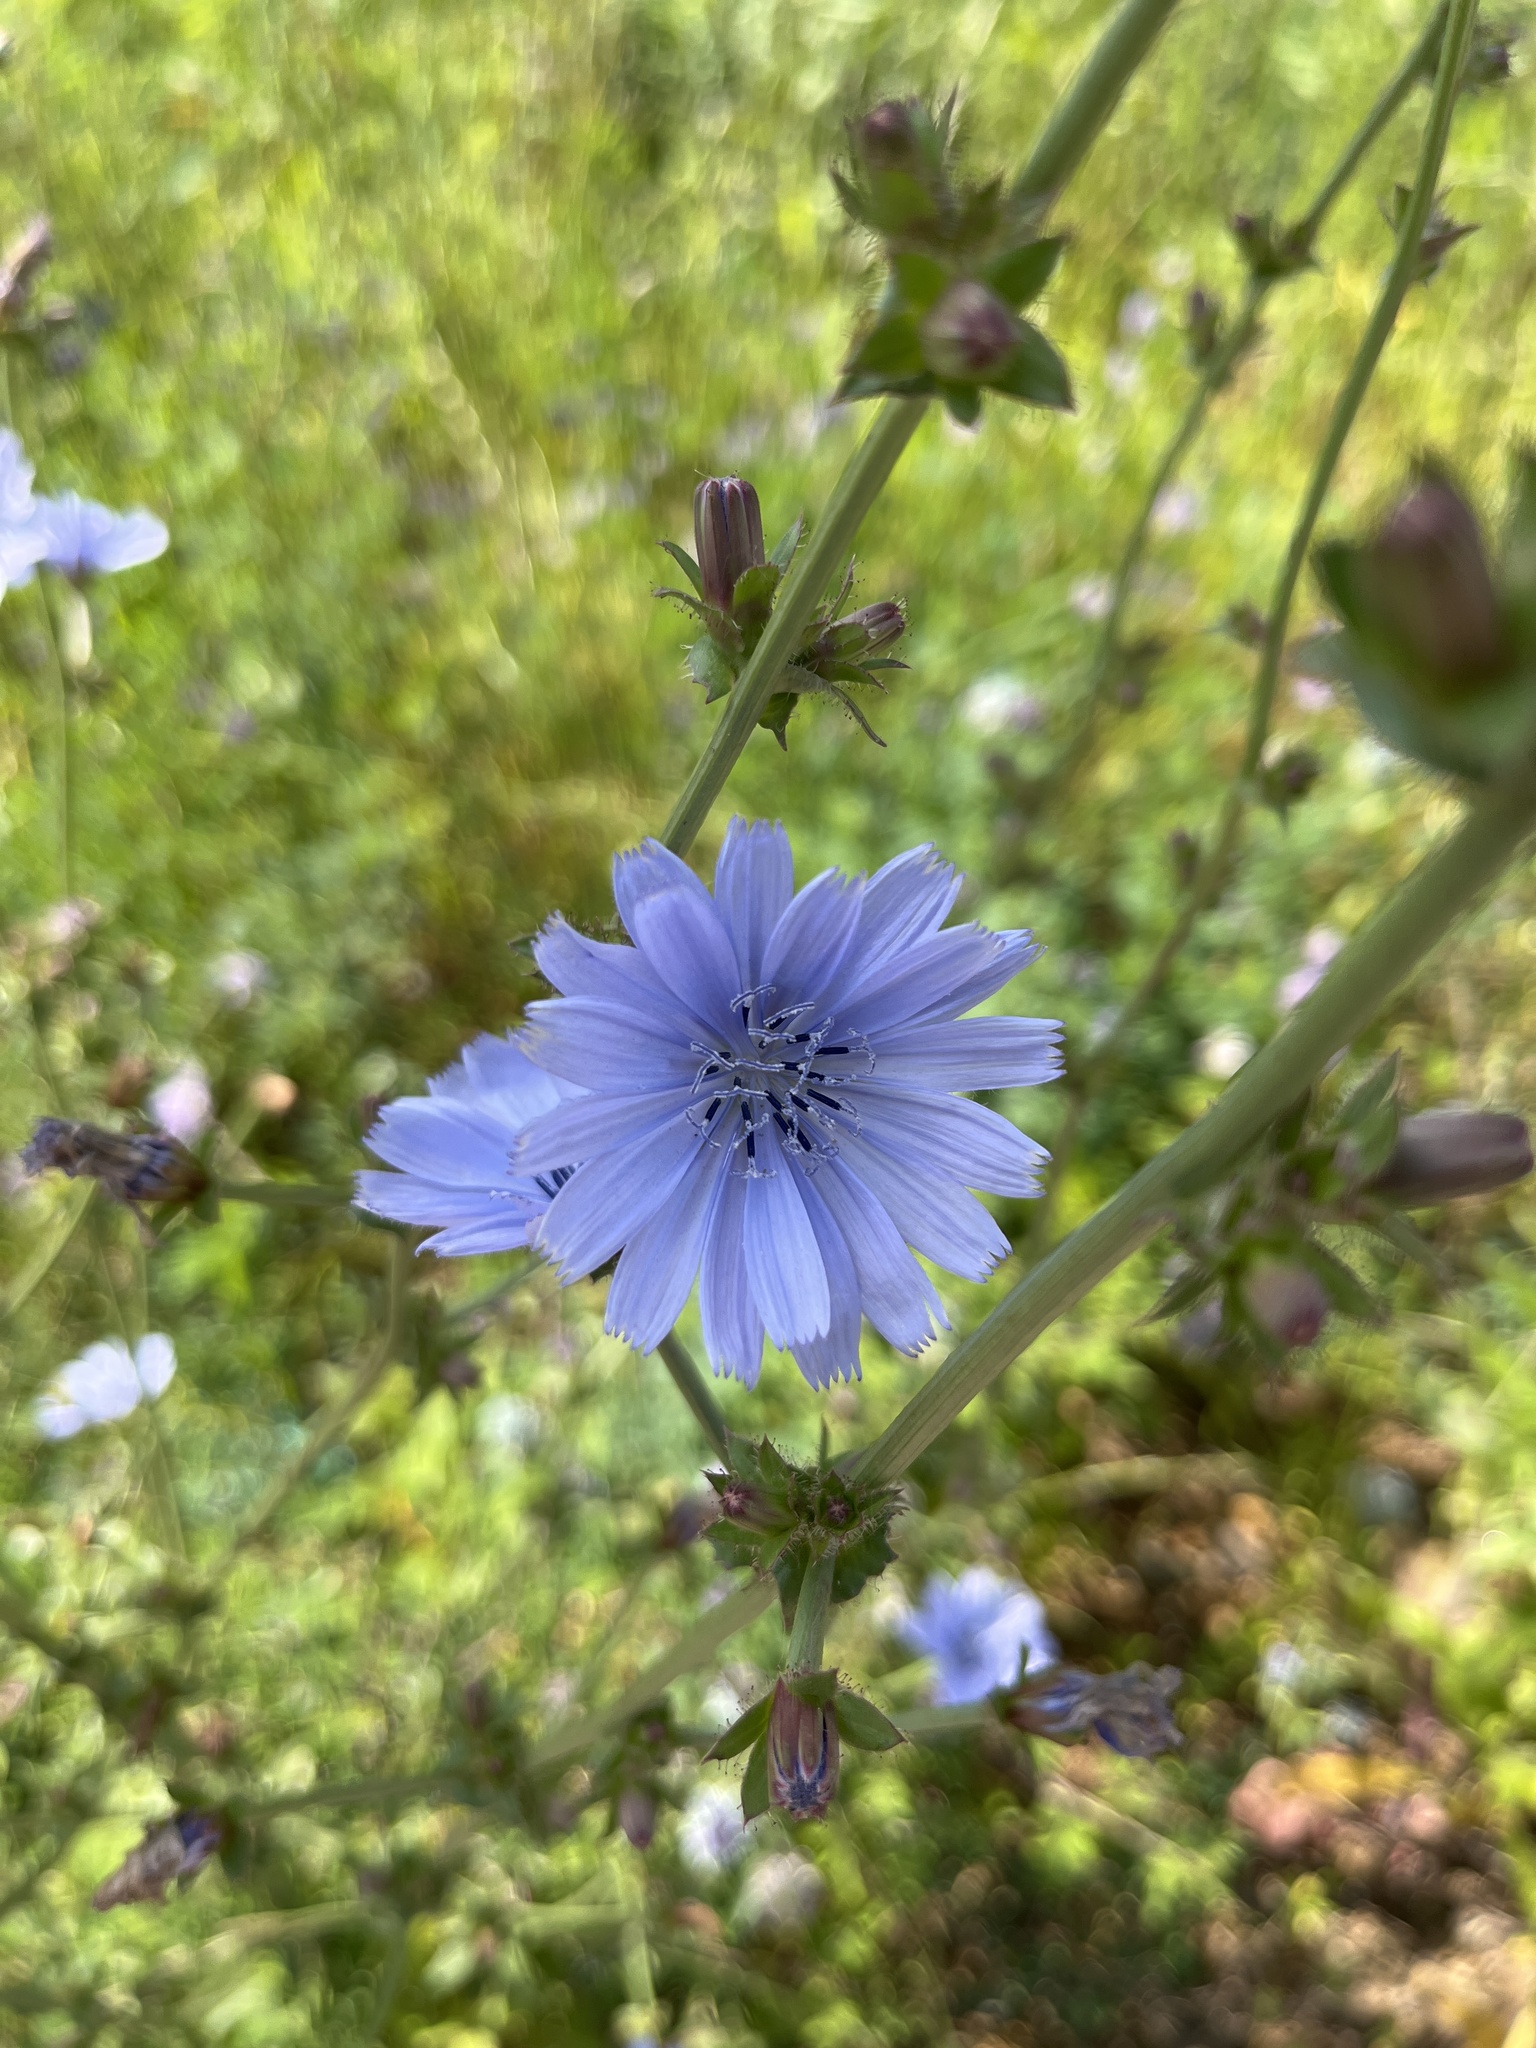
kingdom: Plantae
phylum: Tracheophyta
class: Magnoliopsida
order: Asterales
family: Asteraceae
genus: Cichorium
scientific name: Cichorium intybus
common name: Chicory
